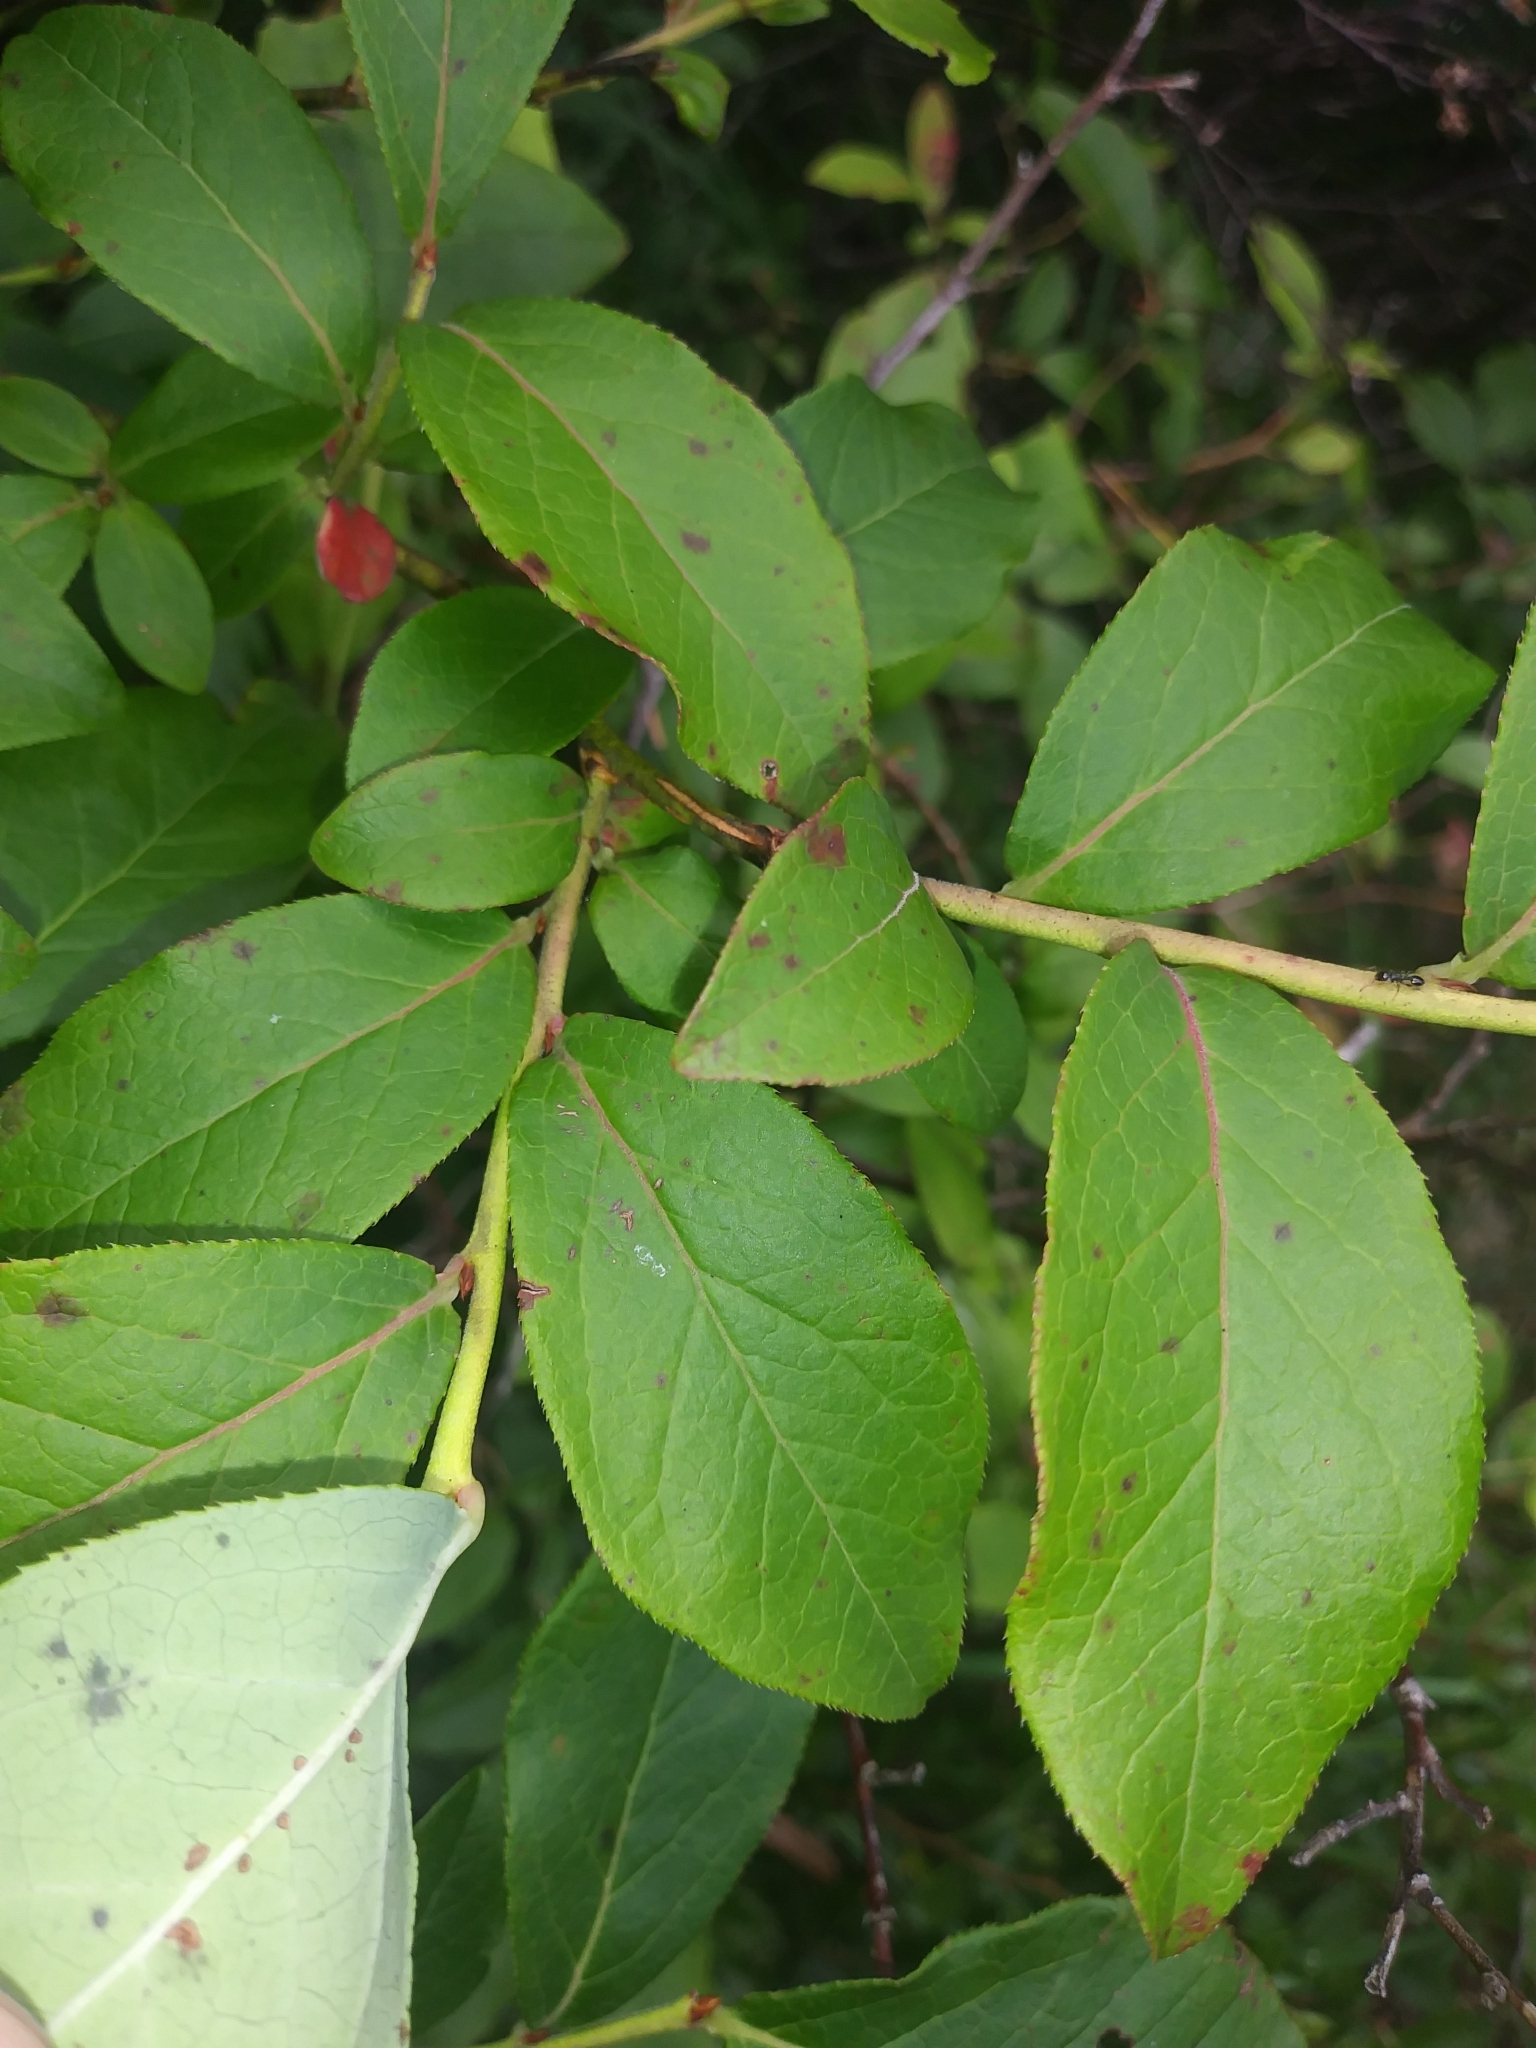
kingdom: Plantae
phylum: Tracheophyta
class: Magnoliopsida
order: Ericales
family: Ericaceae
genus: Vaccinium
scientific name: Vaccinium corymbosum
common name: Blueberry
